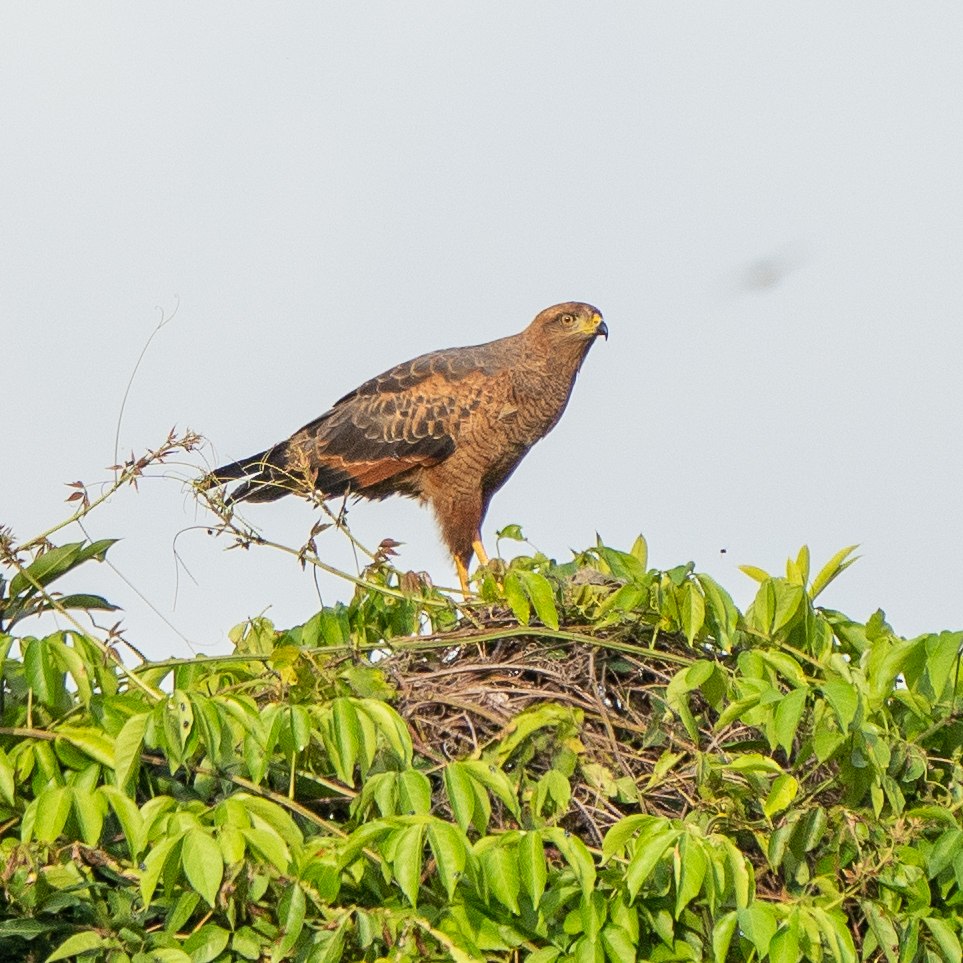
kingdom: Animalia
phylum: Chordata
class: Aves
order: Accipitriformes
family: Accipitridae
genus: Buteogallus
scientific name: Buteogallus meridionalis
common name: Savanna hawk
